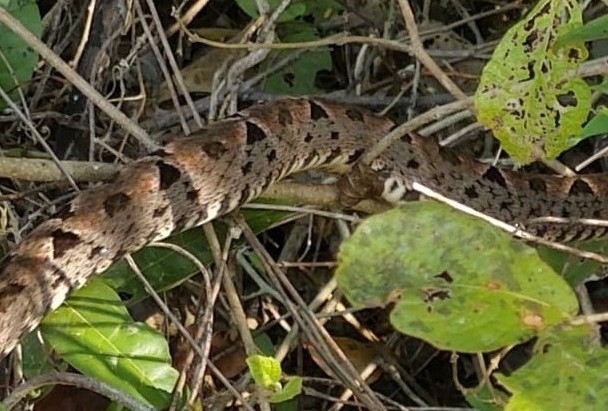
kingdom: Animalia
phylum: Chordata
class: Squamata
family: Viperidae
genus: Bothrops
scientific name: Bothrops asper
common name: Terciopelo
